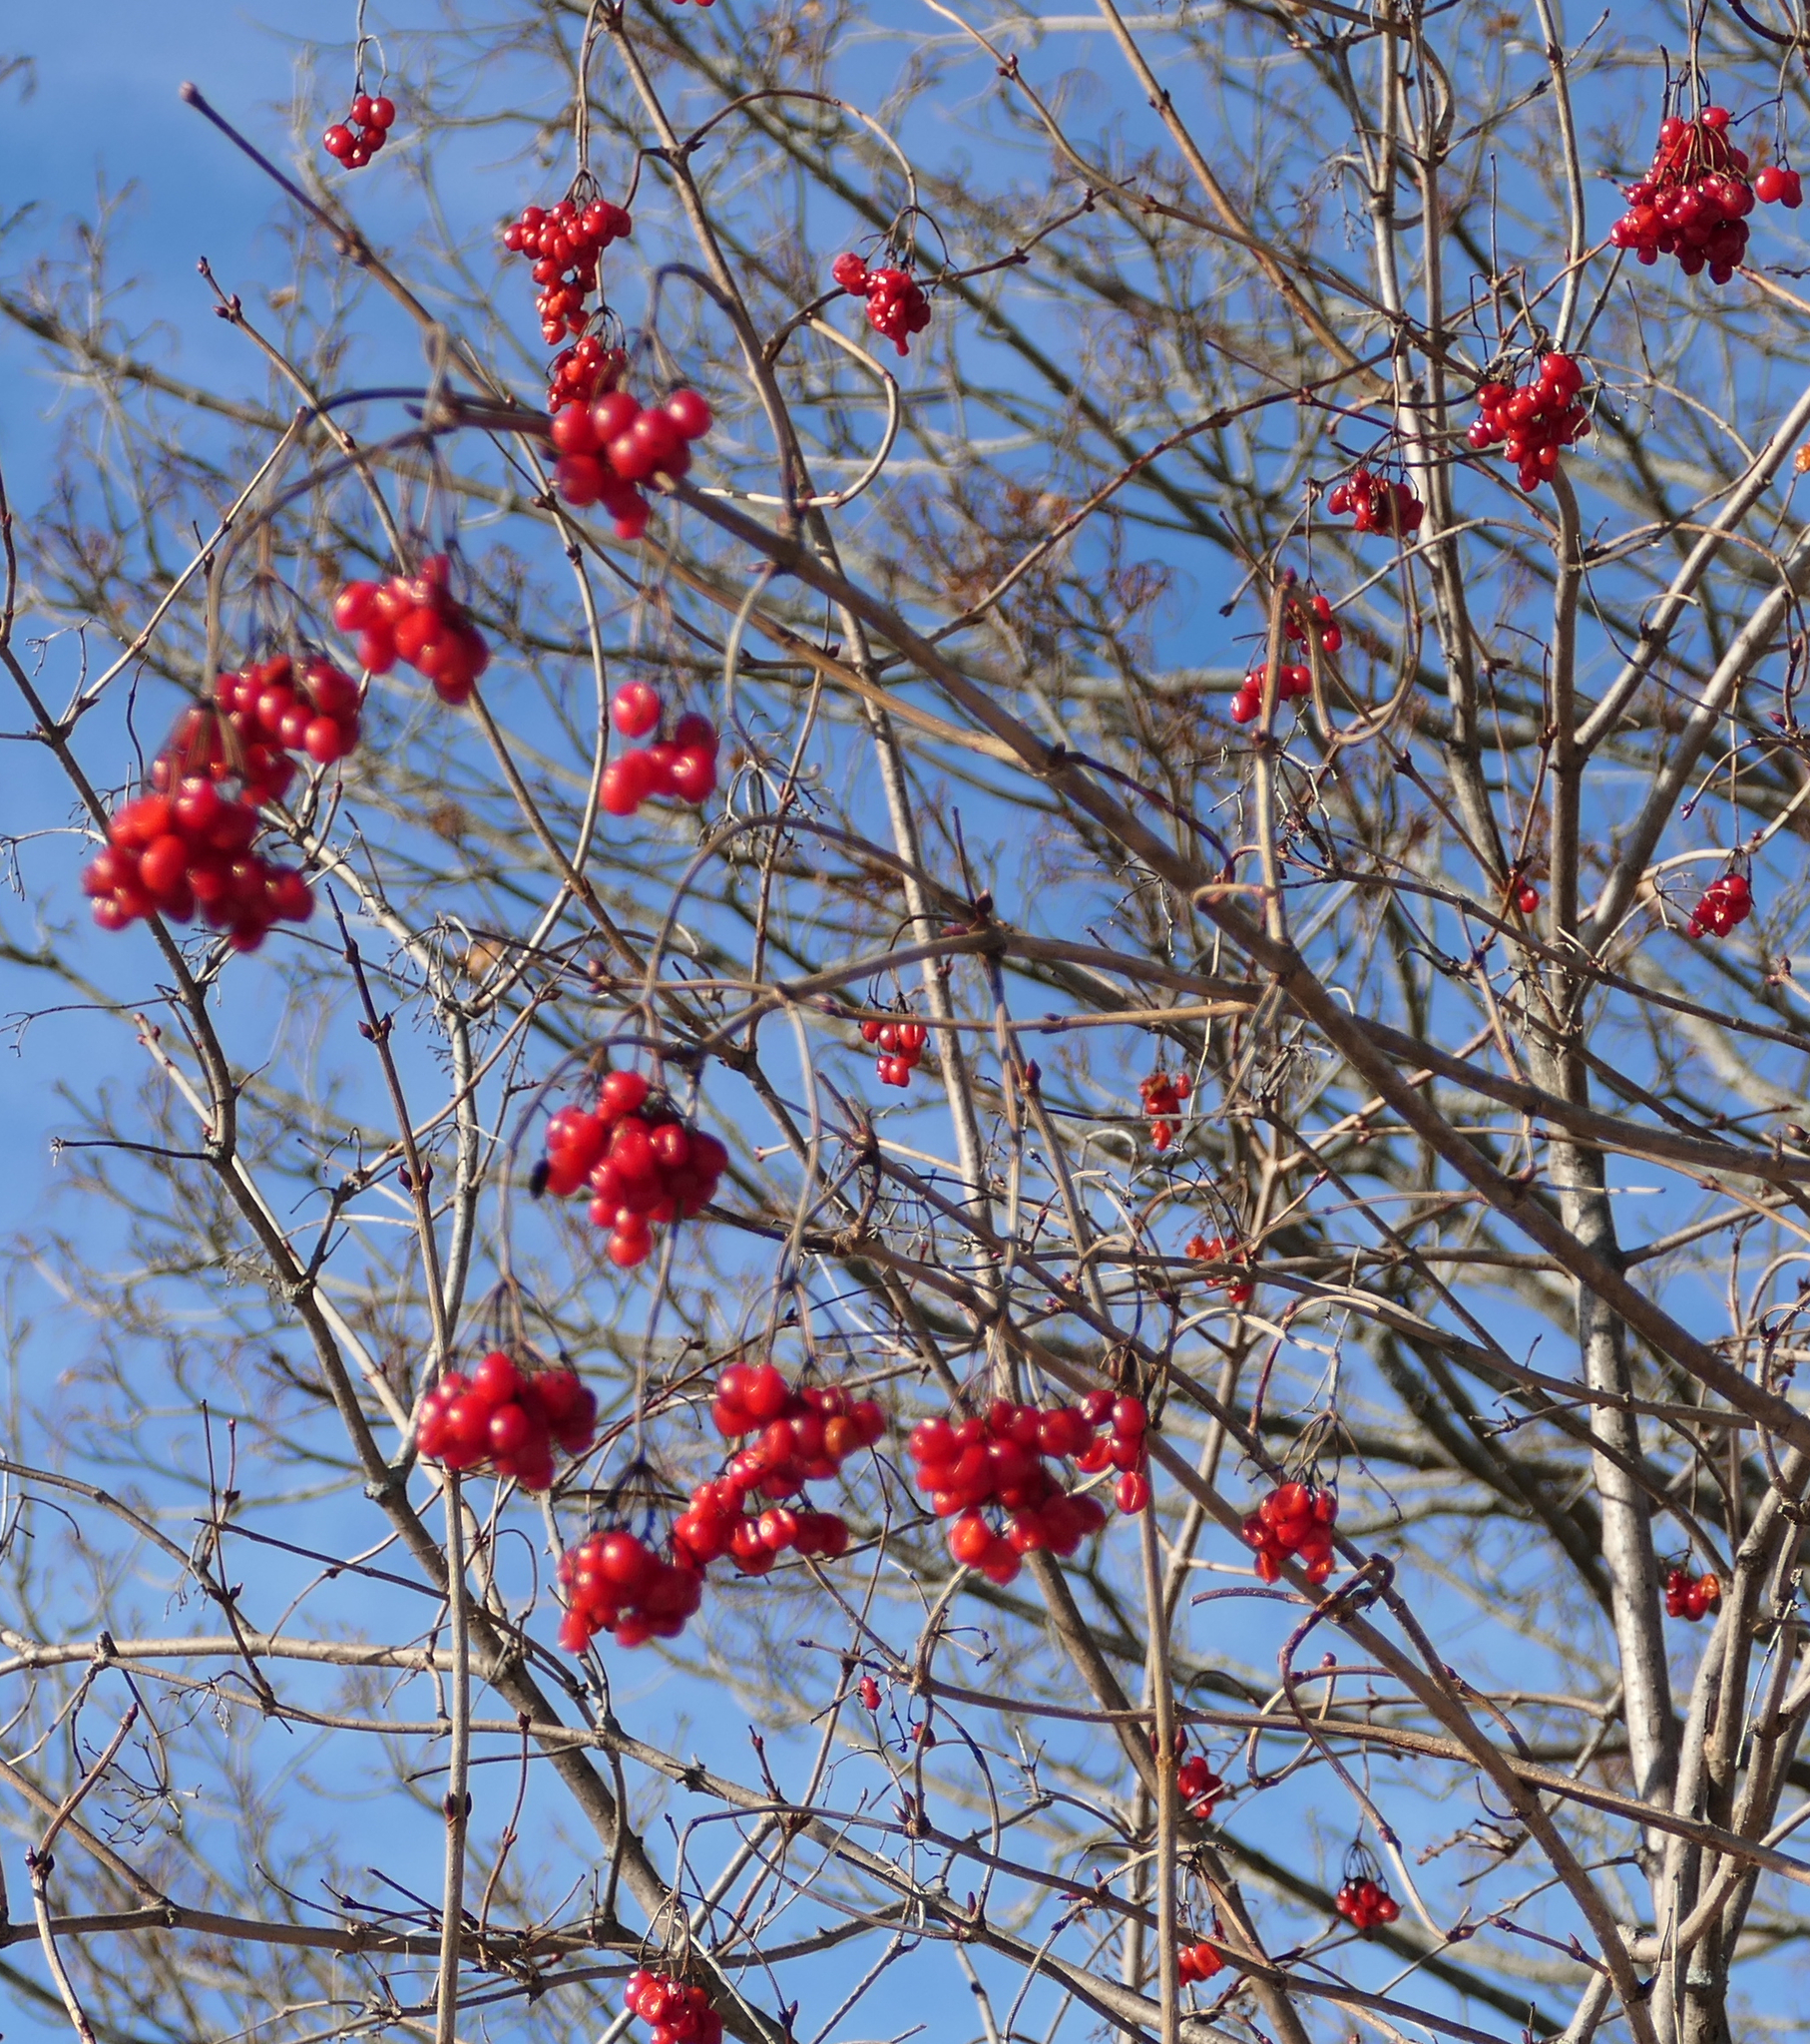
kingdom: Plantae
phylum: Tracheophyta
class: Magnoliopsida
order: Dipsacales
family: Viburnaceae
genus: Viburnum
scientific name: Viburnum opulus
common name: Guelder-rose
